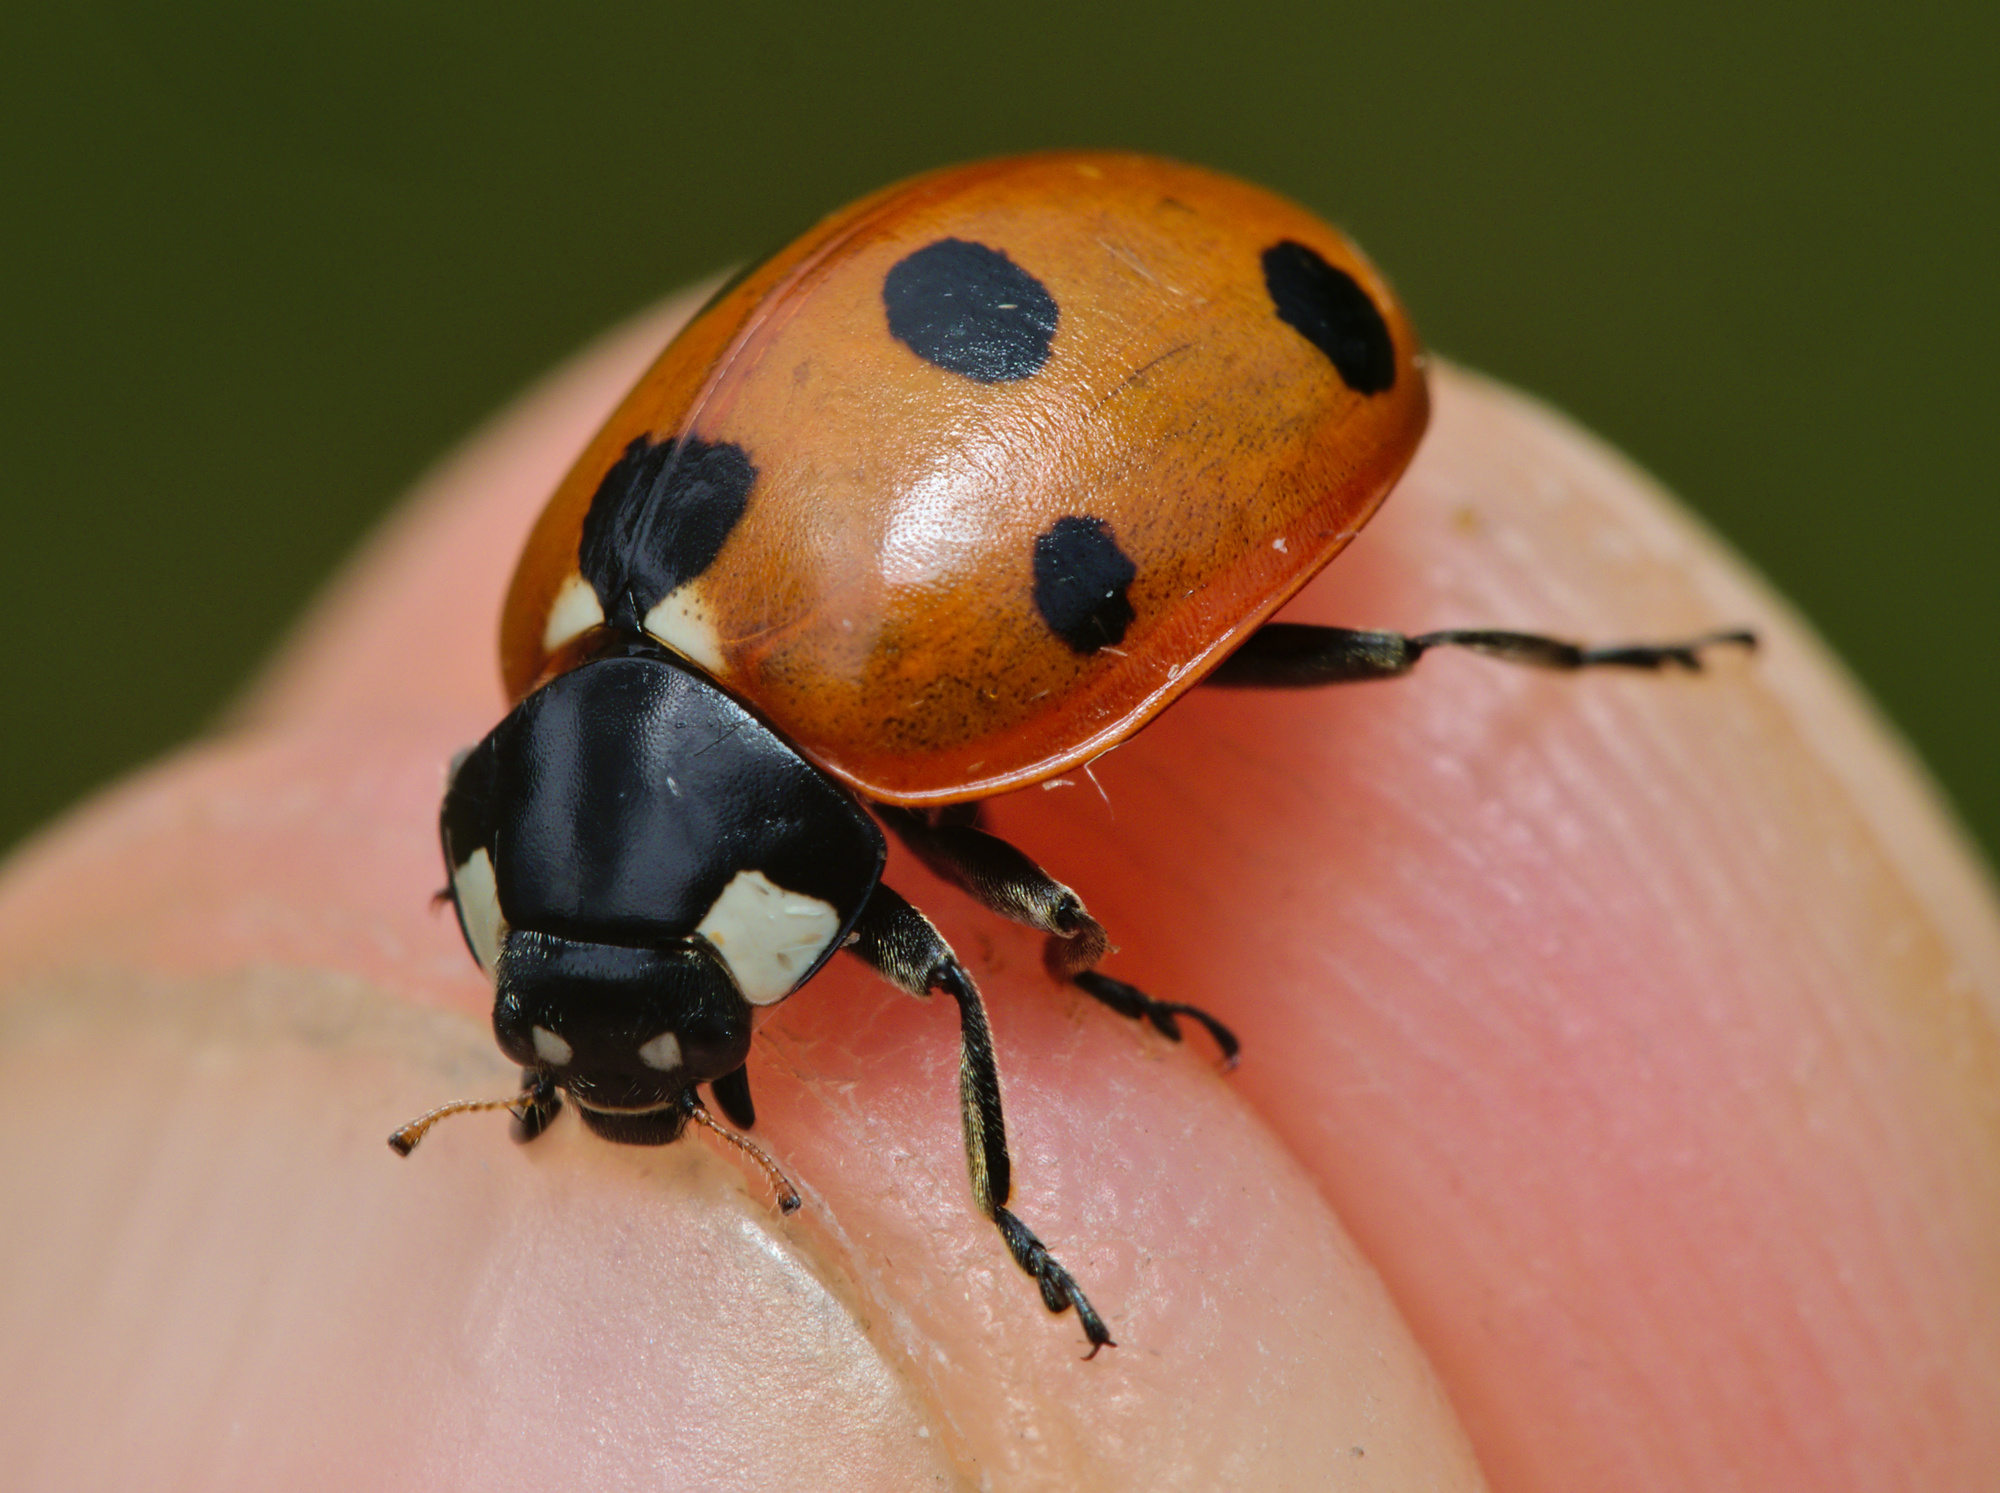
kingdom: Animalia
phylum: Arthropoda
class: Insecta
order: Coleoptera
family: Coccinellidae
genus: Coccinella
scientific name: Coccinella septempunctata
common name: Sevenspotted lady beetle
